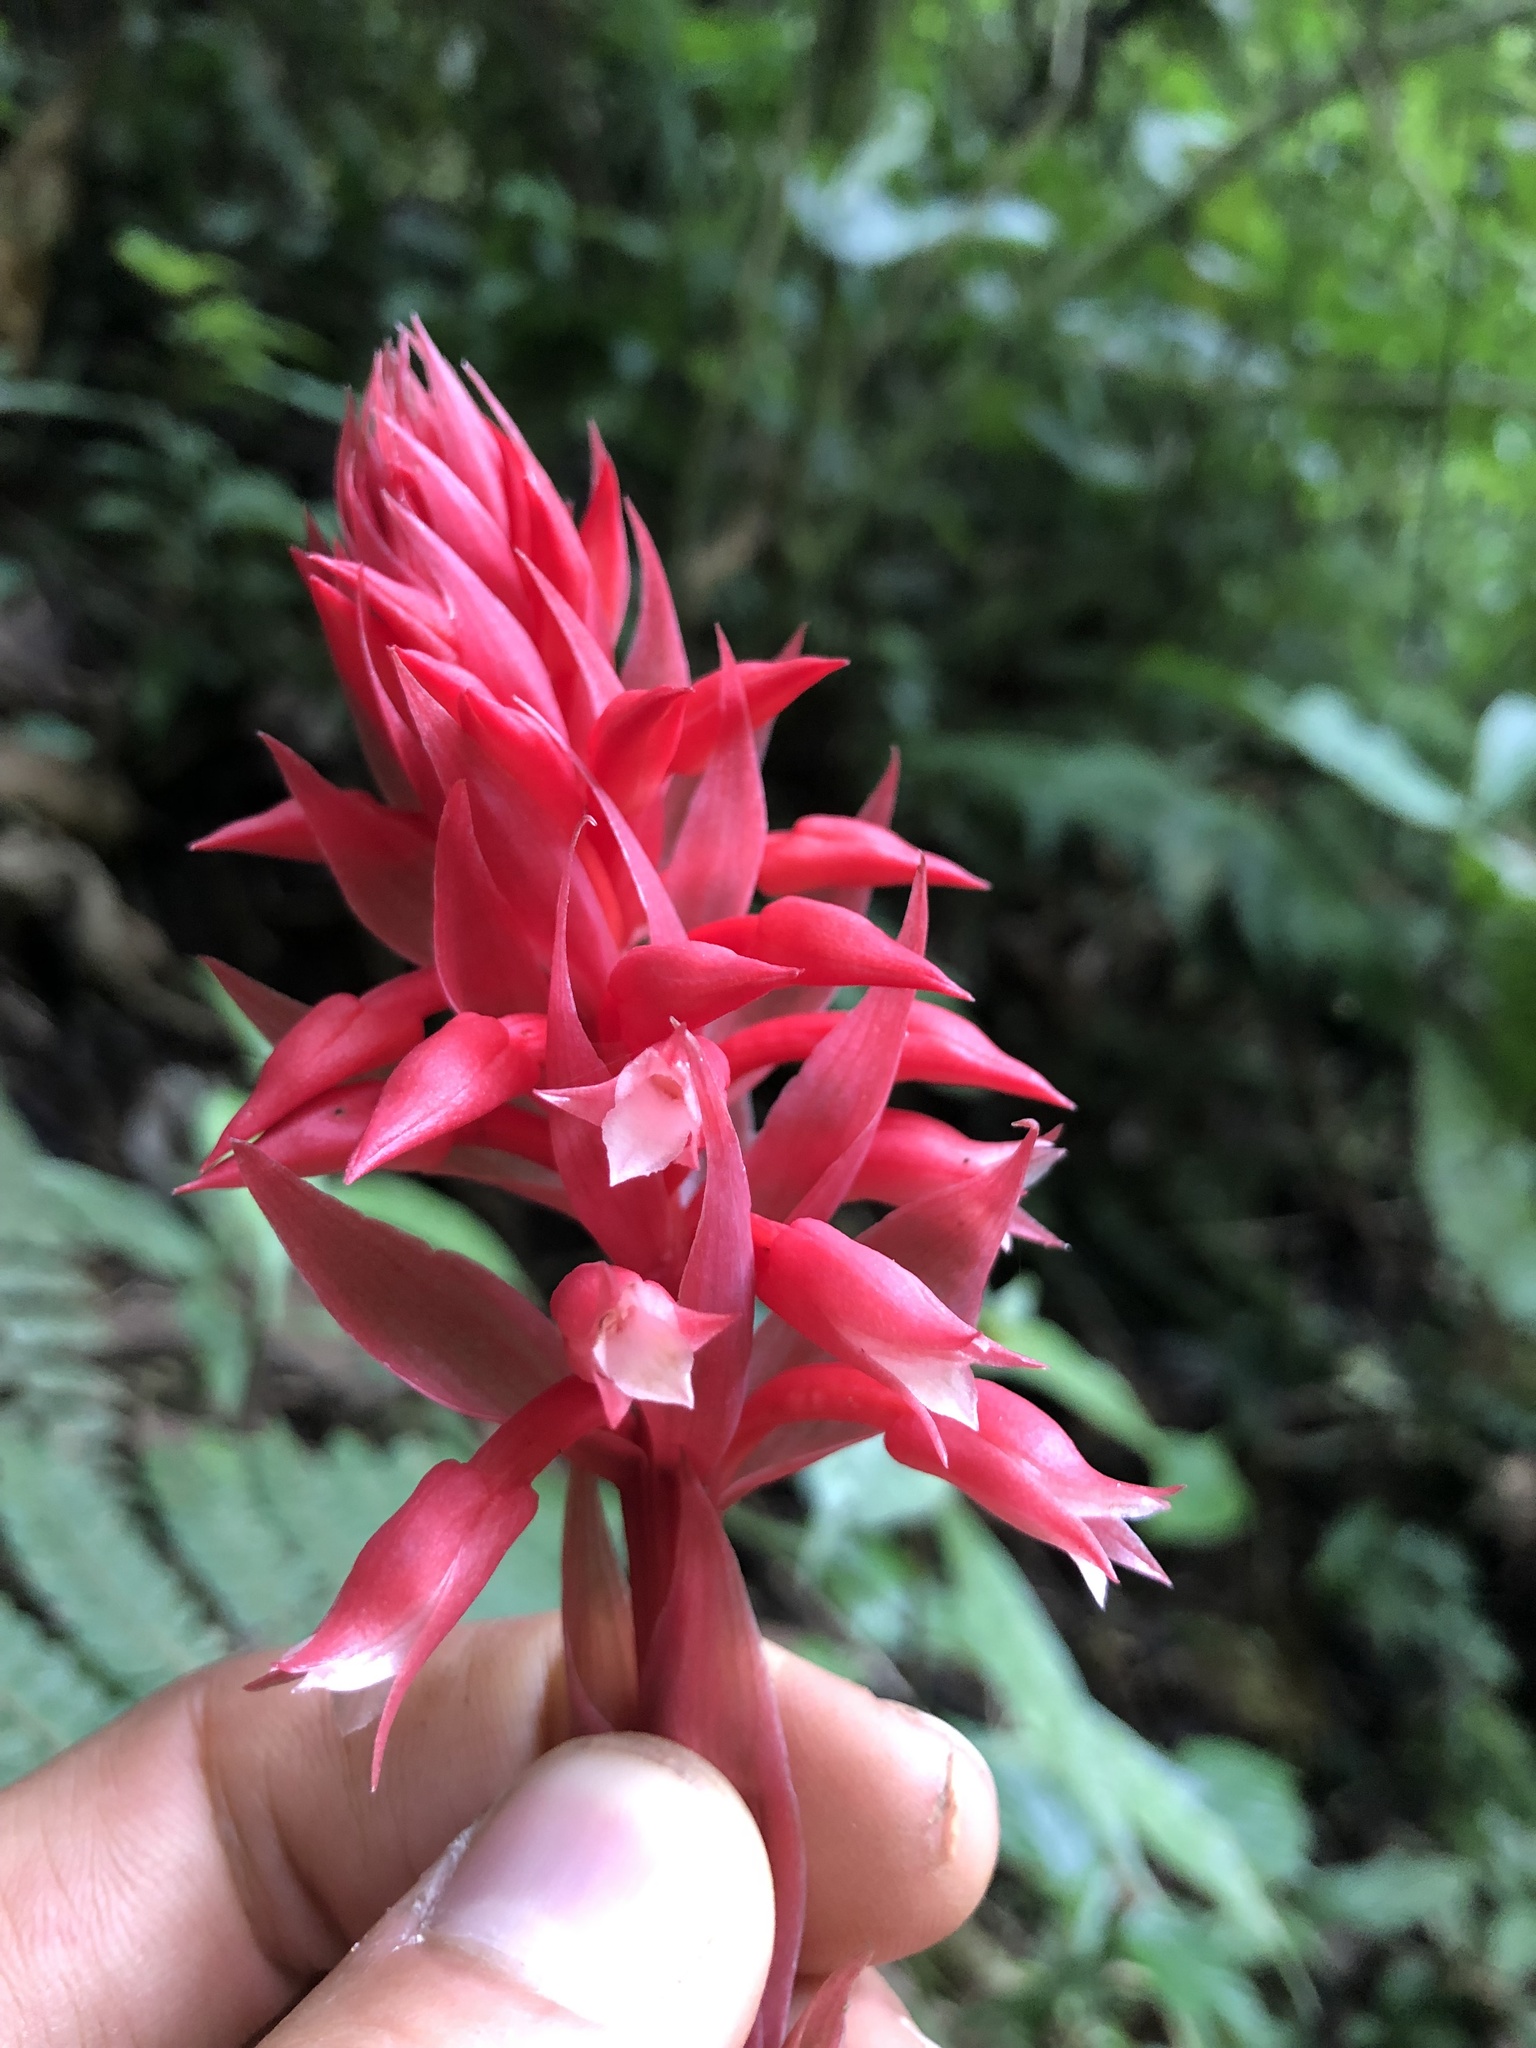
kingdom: Plantae
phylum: Tracheophyta
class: Liliopsida
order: Asparagales
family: Orchidaceae
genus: Stenorrhynchos
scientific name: Stenorrhynchos albidomaculatum
